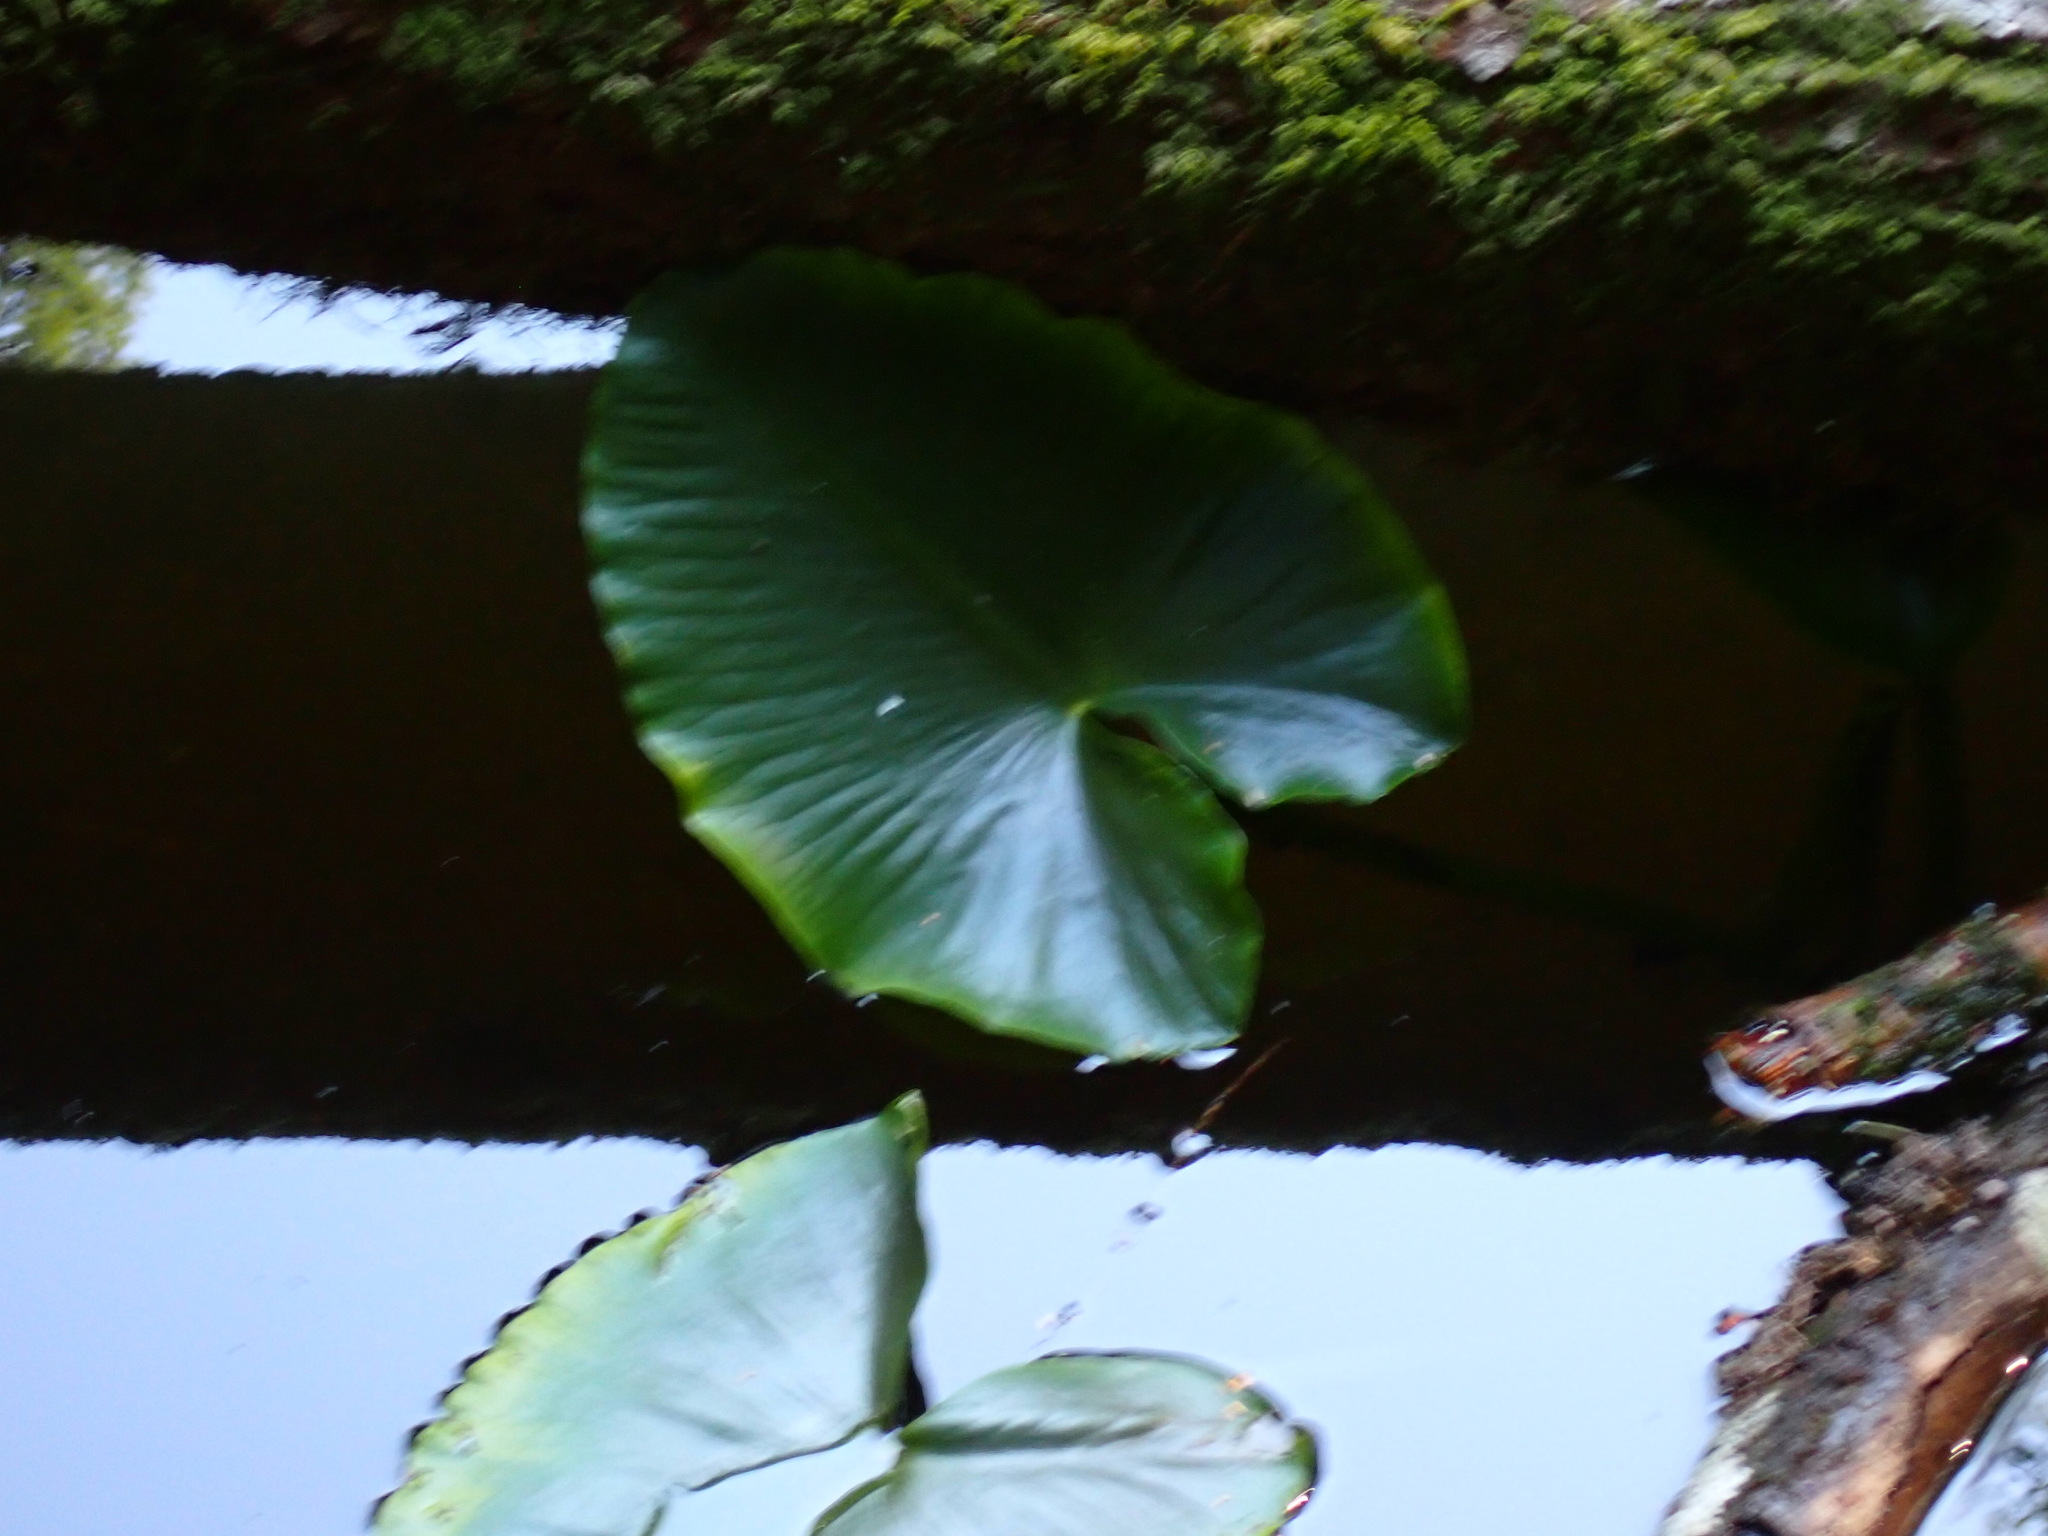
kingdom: Plantae
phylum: Tracheophyta
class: Magnoliopsida
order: Nymphaeales
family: Nymphaeaceae
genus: Nuphar
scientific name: Nuphar polysepala
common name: Rocky mountain cow-lily
